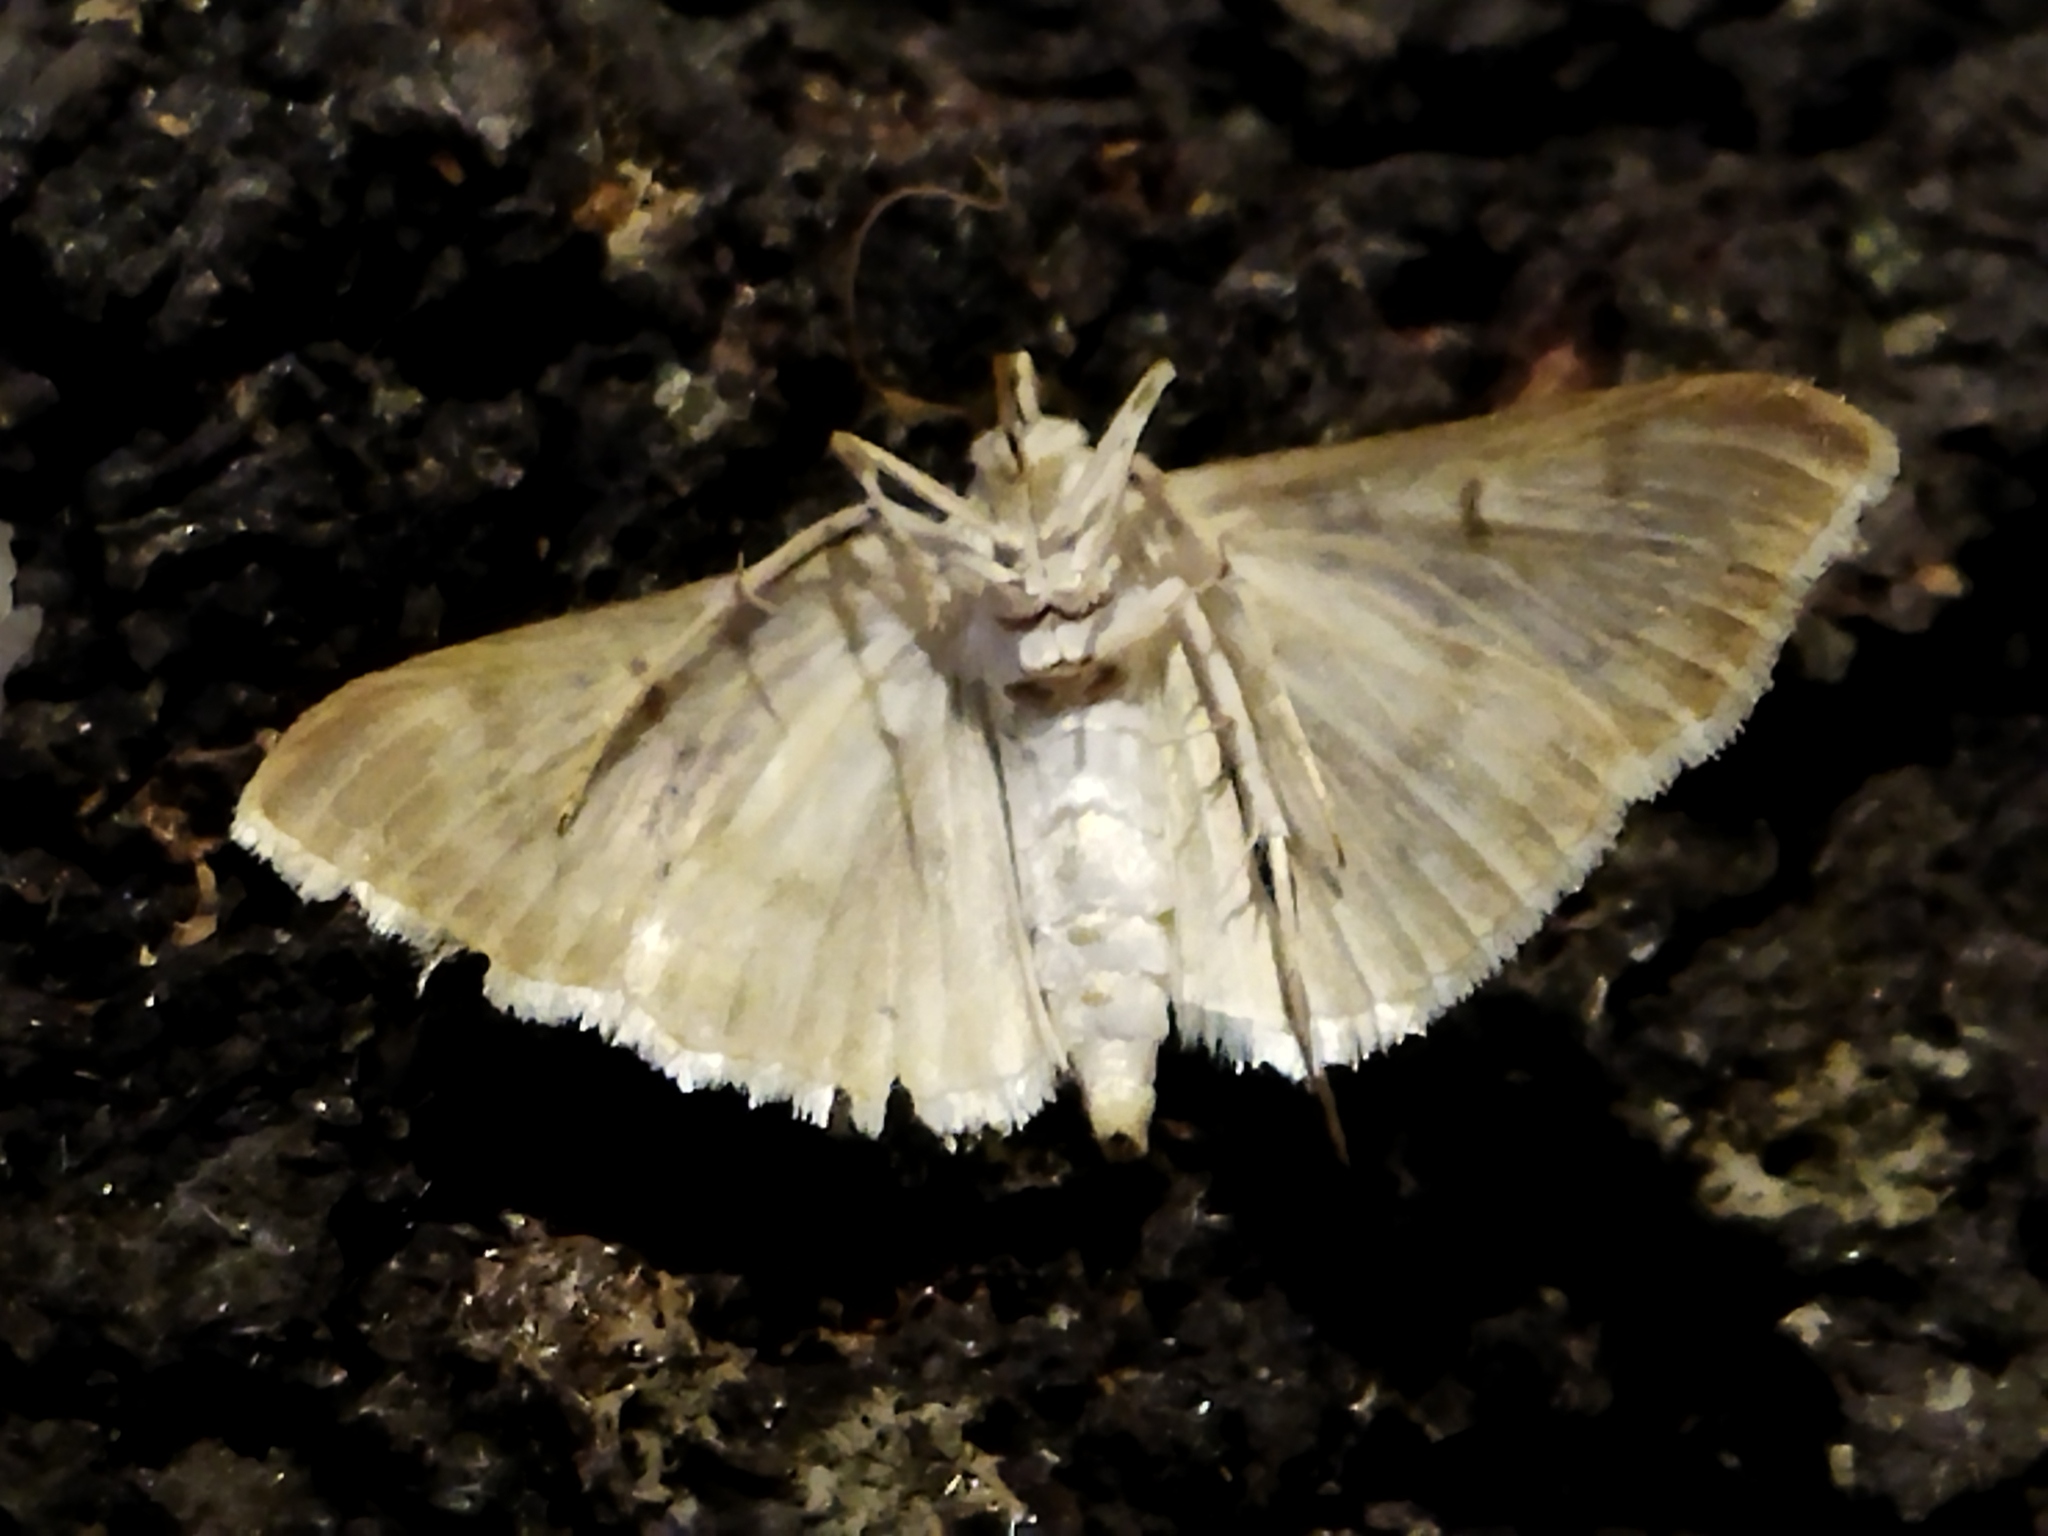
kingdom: Animalia
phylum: Arthropoda
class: Insecta
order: Lepidoptera
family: Crambidae
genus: Patania
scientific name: Patania ruralis
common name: Mother of pearl
